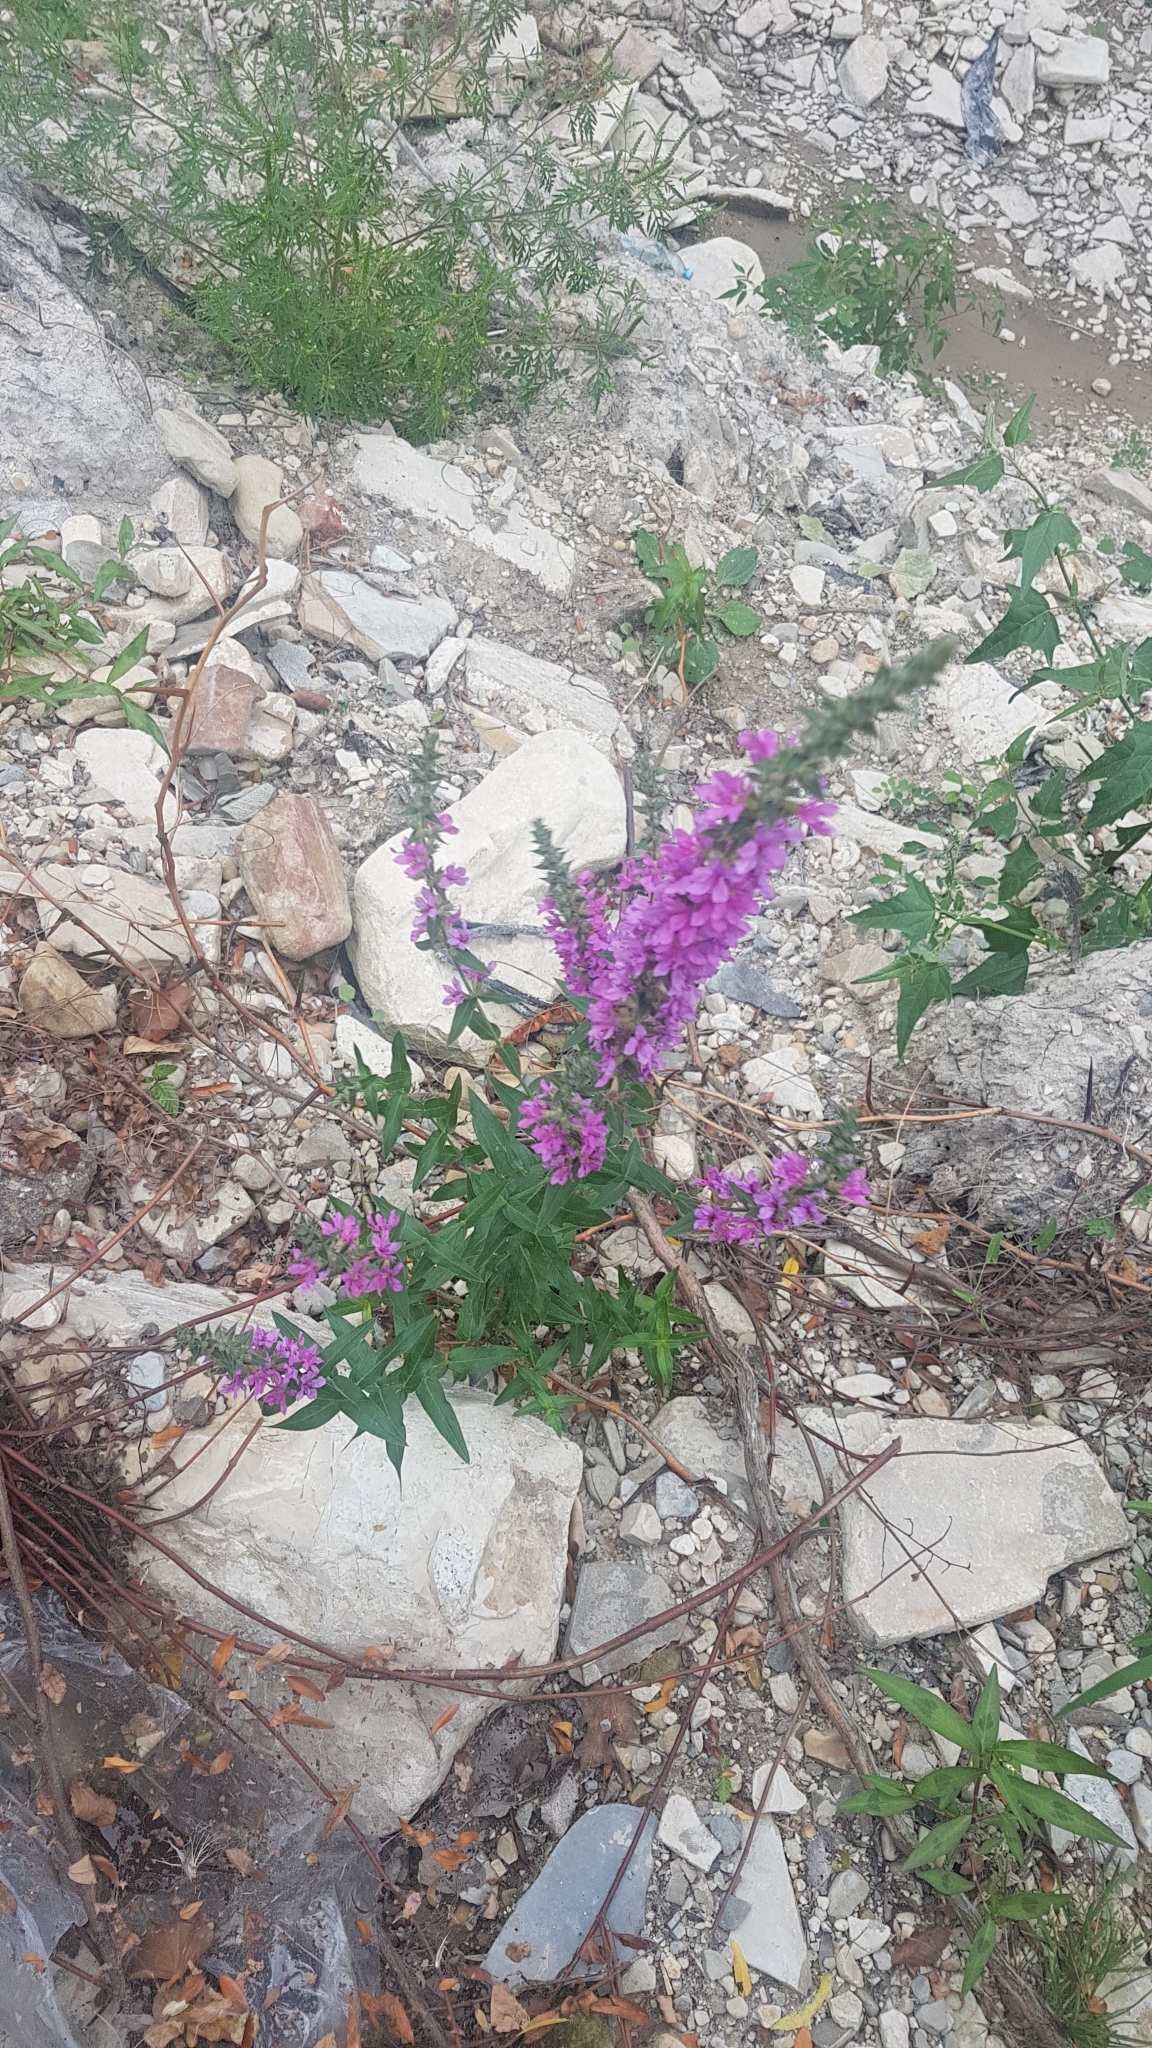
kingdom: Plantae
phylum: Tracheophyta
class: Magnoliopsida
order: Myrtales
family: Lythraceae
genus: Lythrum
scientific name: Lythrum salicaria
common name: Purple loosestrife
